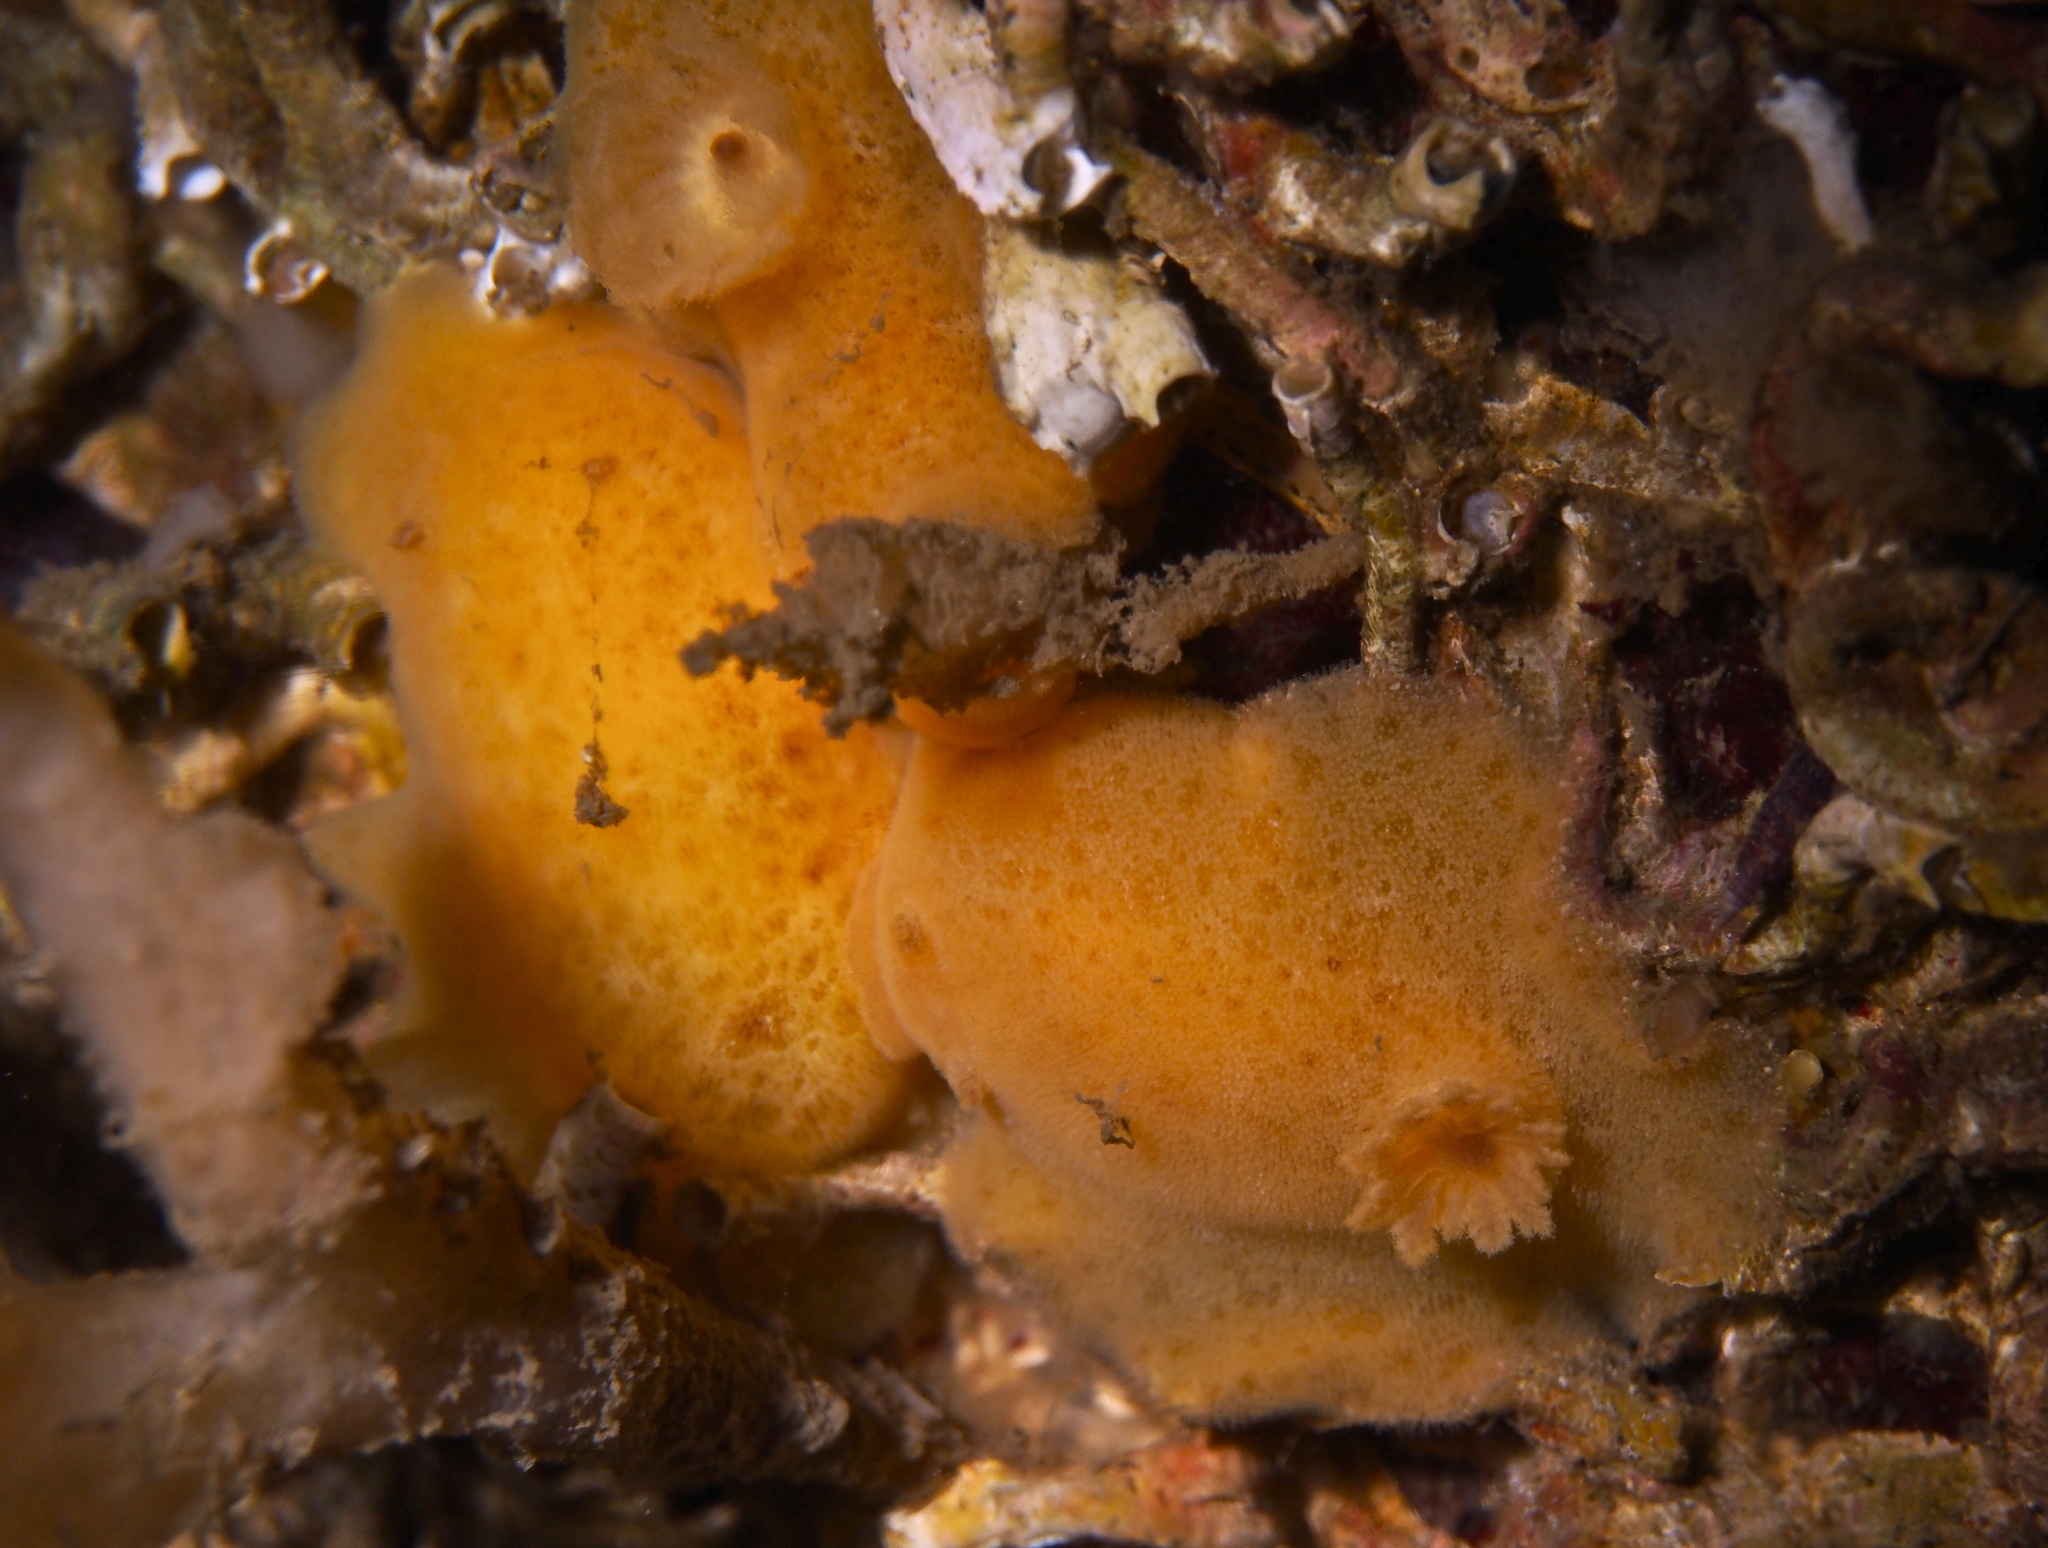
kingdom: Animalia
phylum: Mollusca
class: Gastropoda
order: Nudibranchia
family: Discodorididae
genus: Jorunna
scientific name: Jorunna tomentosa
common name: Grey sea slug
